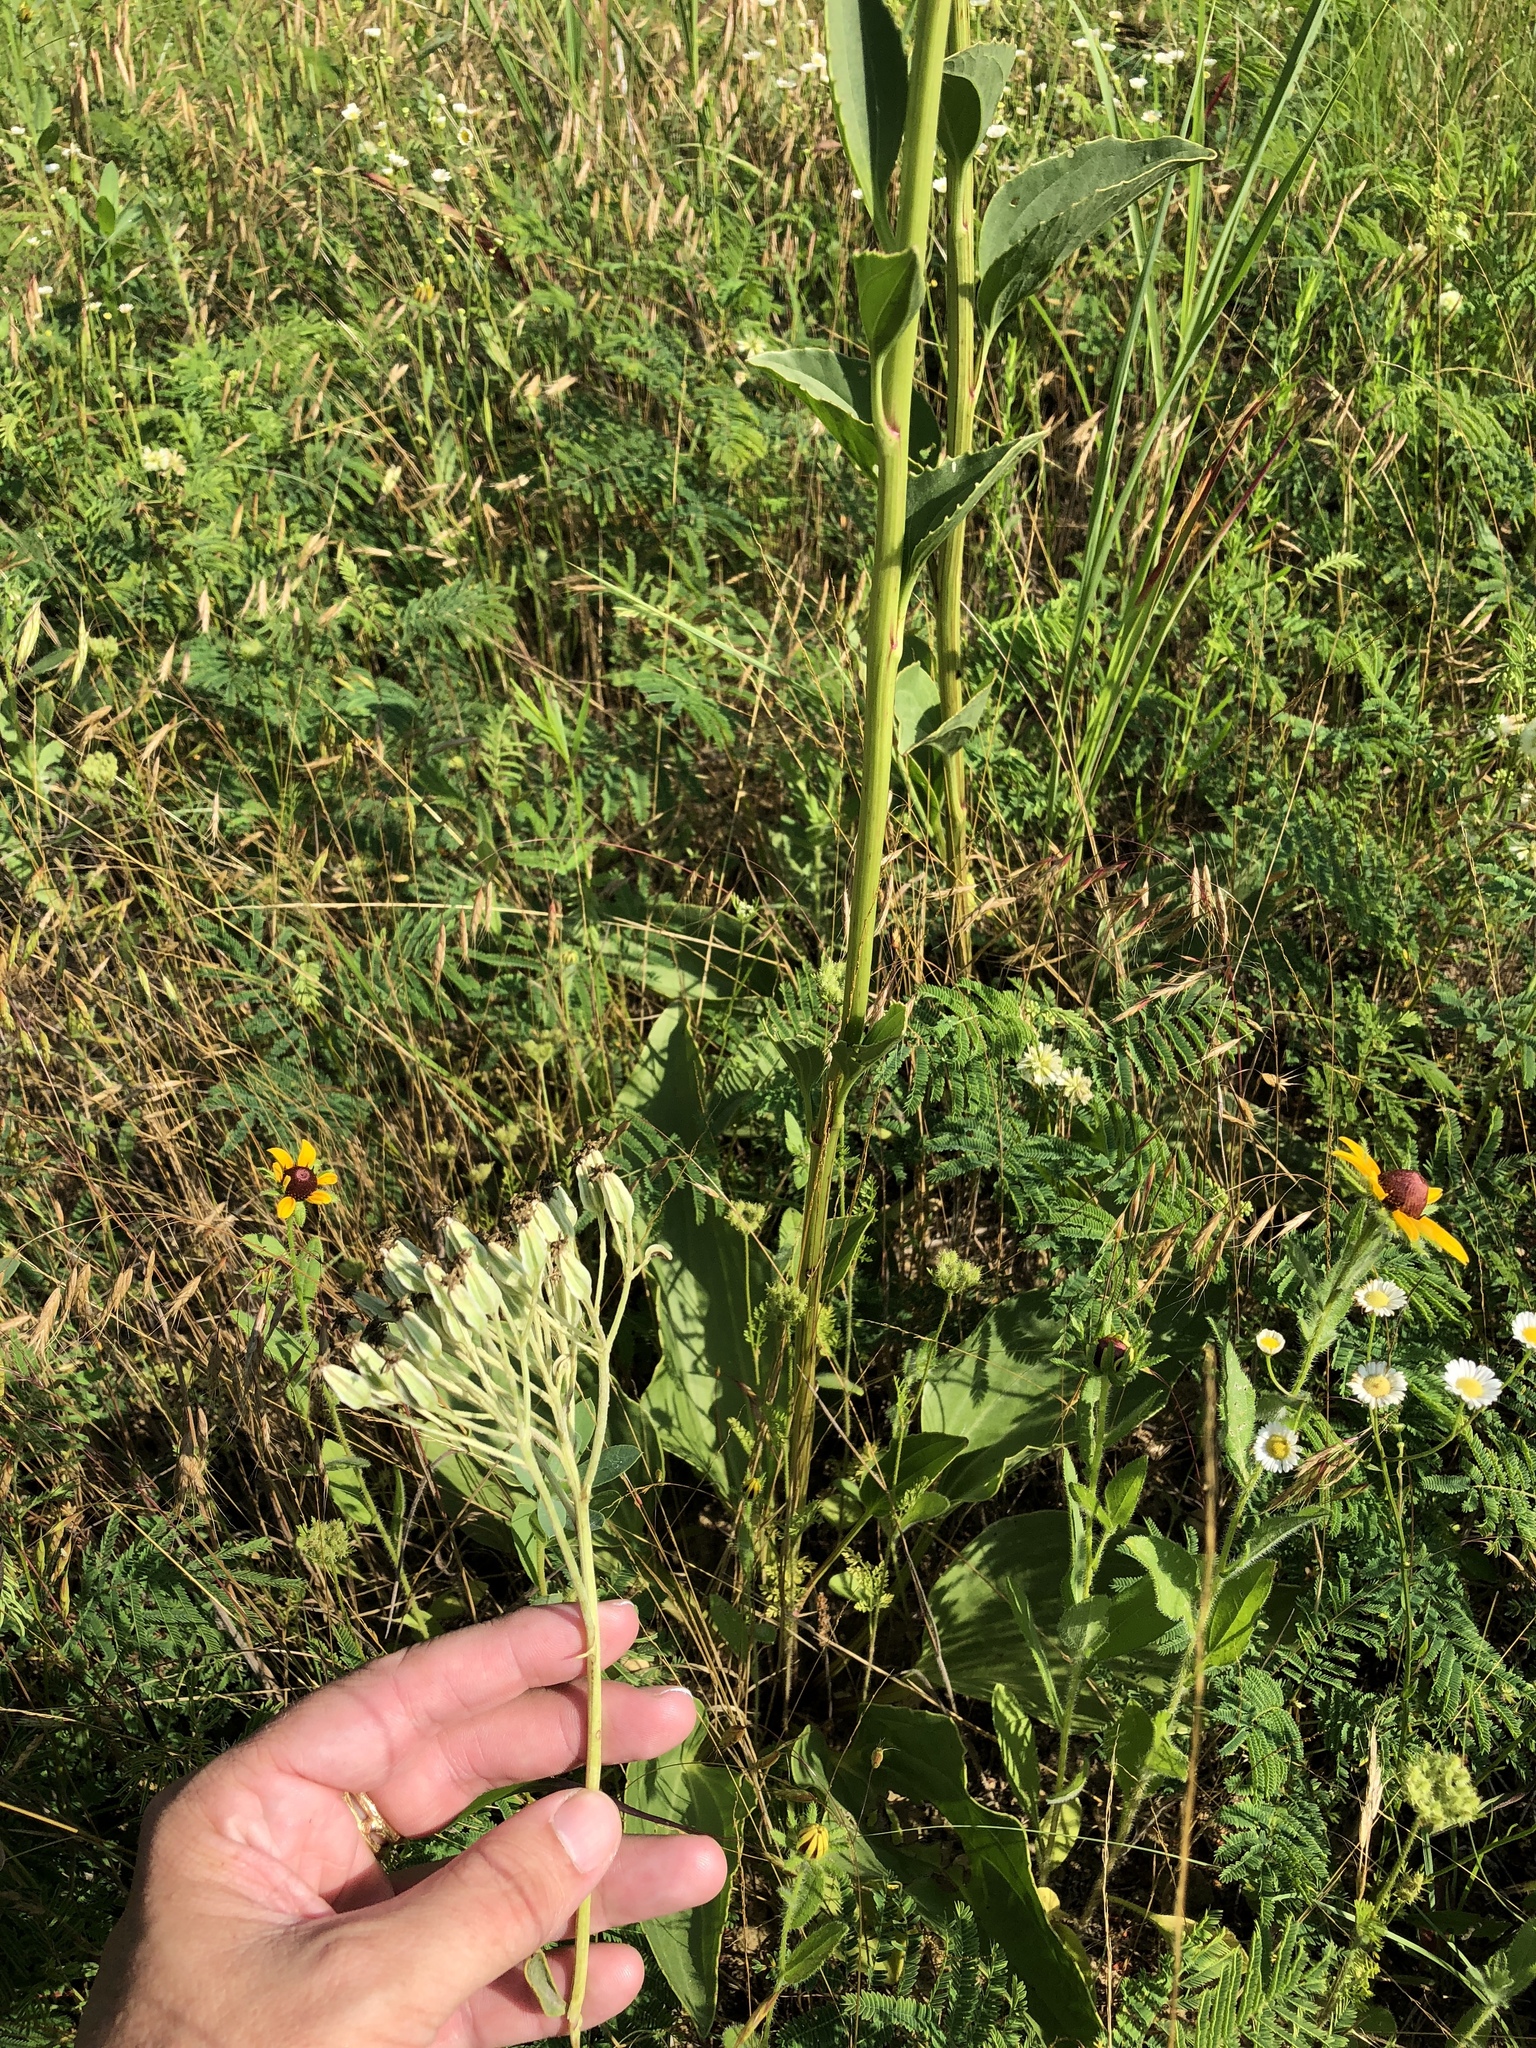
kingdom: Plantae
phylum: Tracheophyta
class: Magnoliopsida
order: Asterales
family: Asteraceae
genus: Arnoglossum
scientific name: Arnoglossum plantagineum
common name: Groove-stemmed indian-plantain
